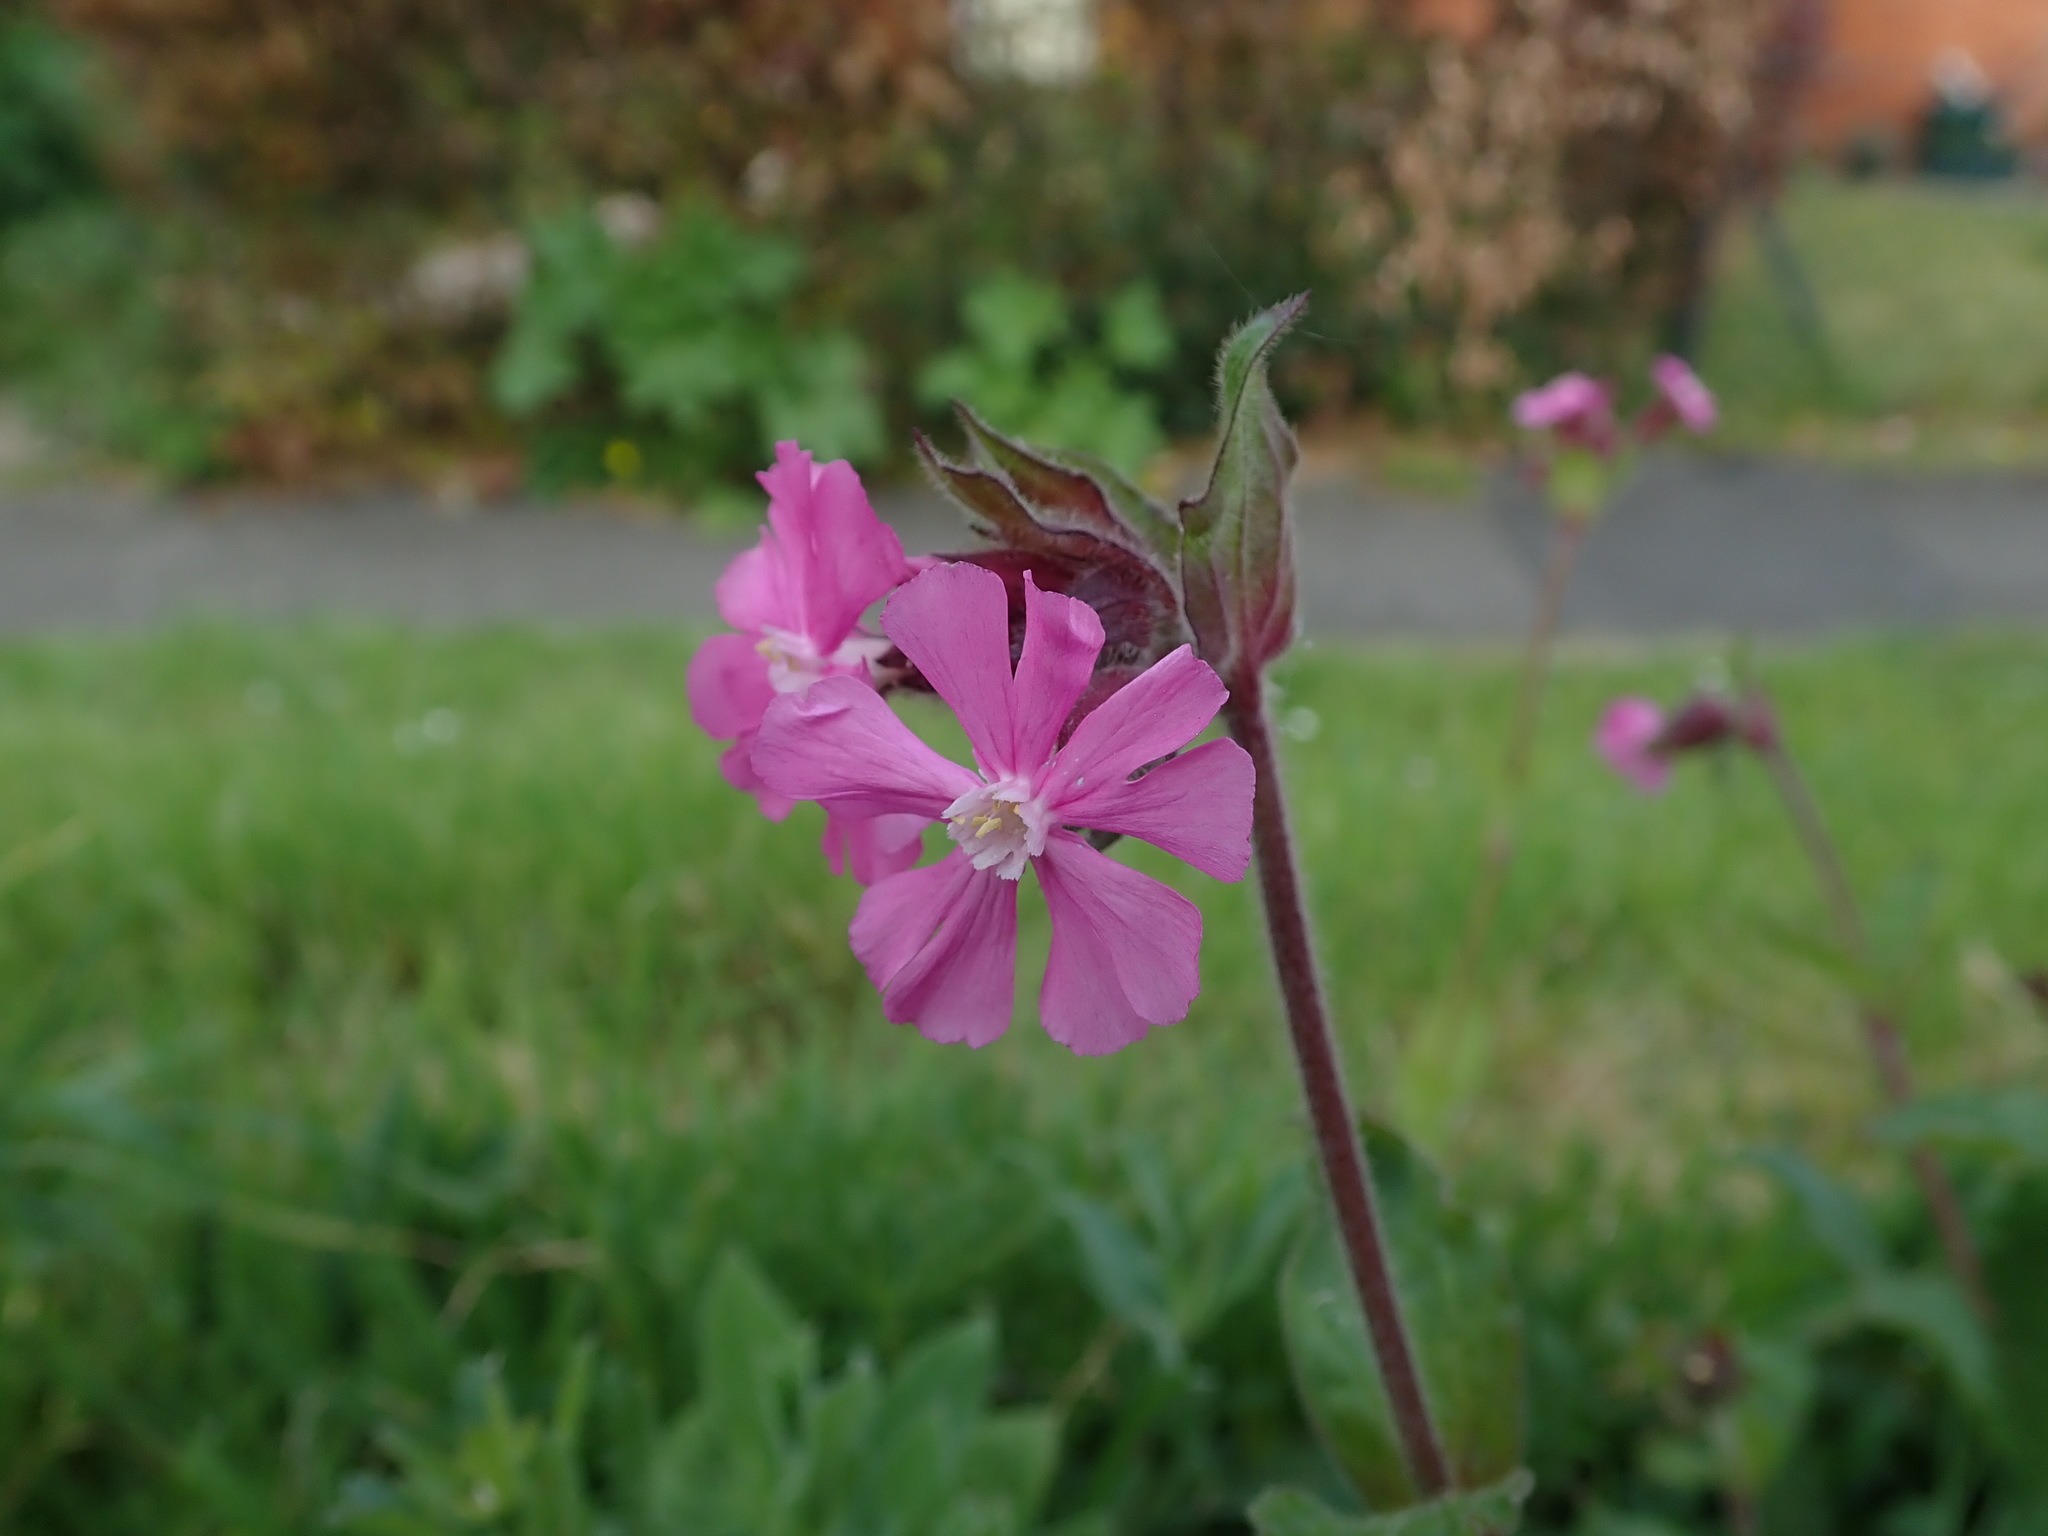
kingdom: Plantae
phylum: Tracheophyta
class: Magnoliopsida
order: Caryophyllales
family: Caryophyllaceae
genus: Silene
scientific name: Silene dioica
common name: Red campion
